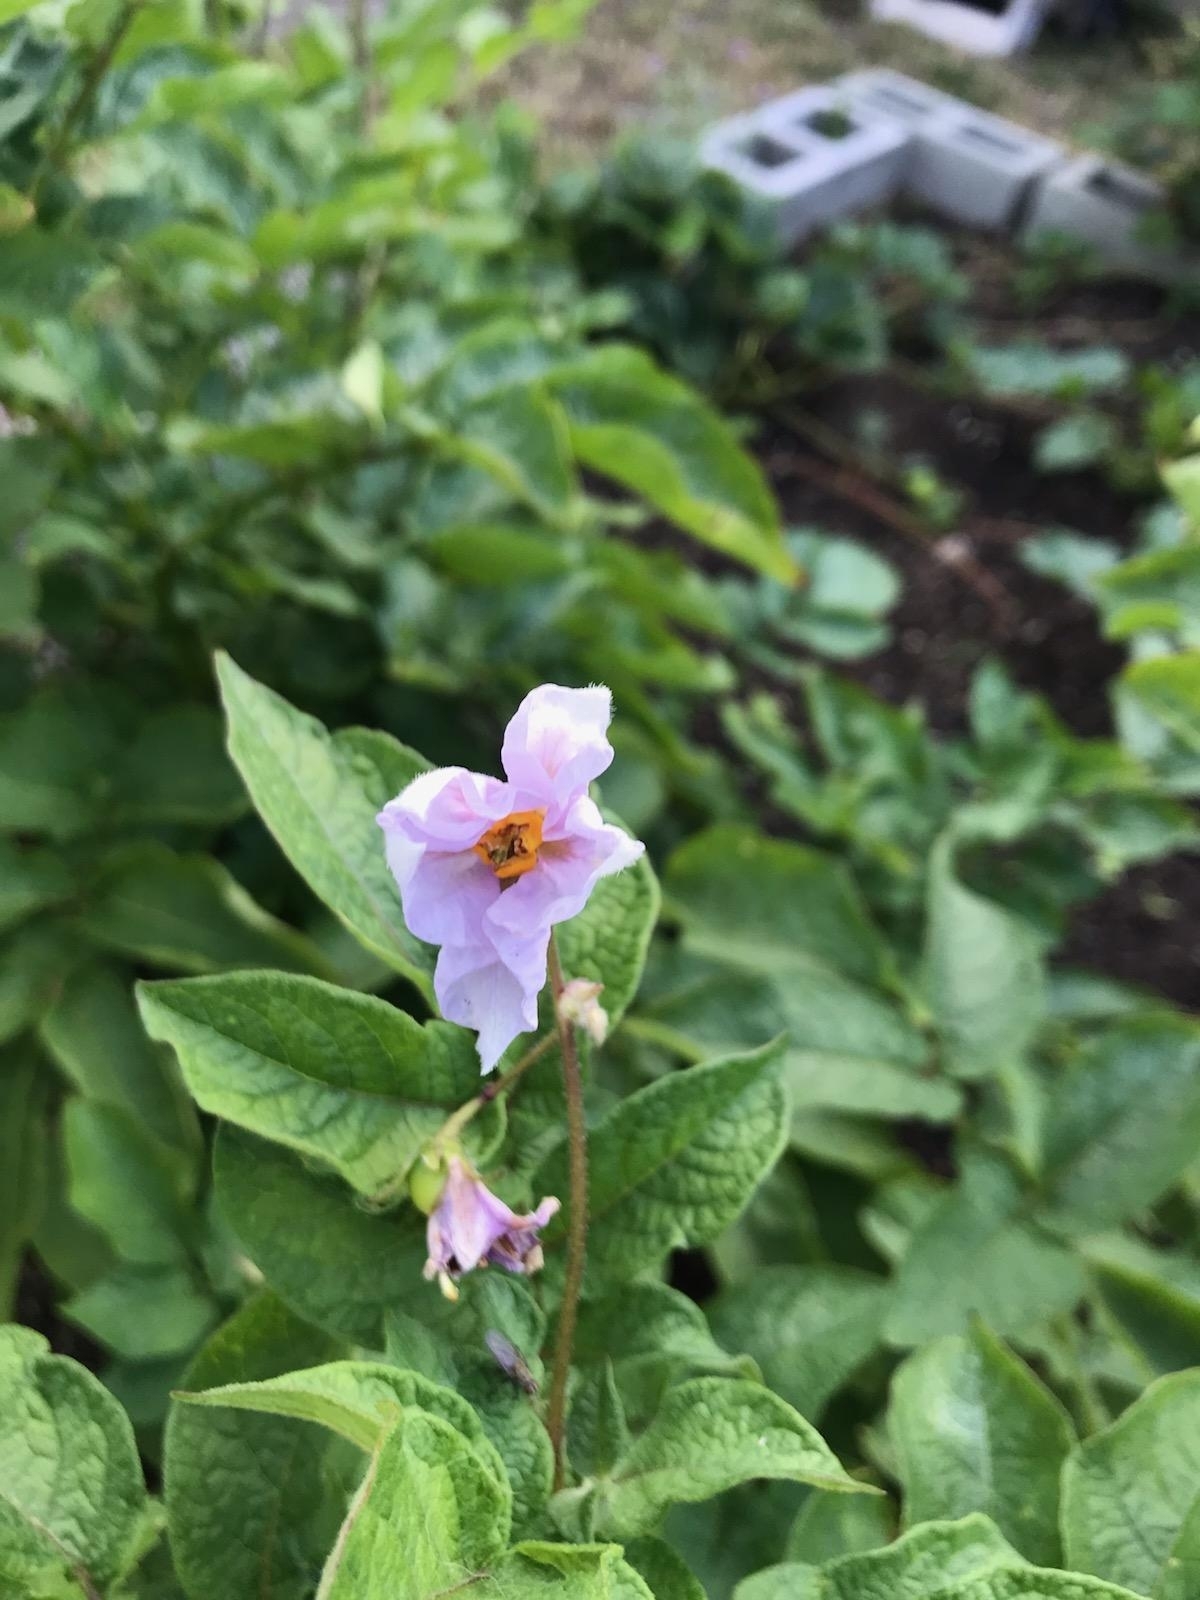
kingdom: Plantae
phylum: Tracheophyta
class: Magnoliopsida
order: Solanales
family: Solanaceae
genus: Solanum
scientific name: Solanum tuberosum
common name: Potato
